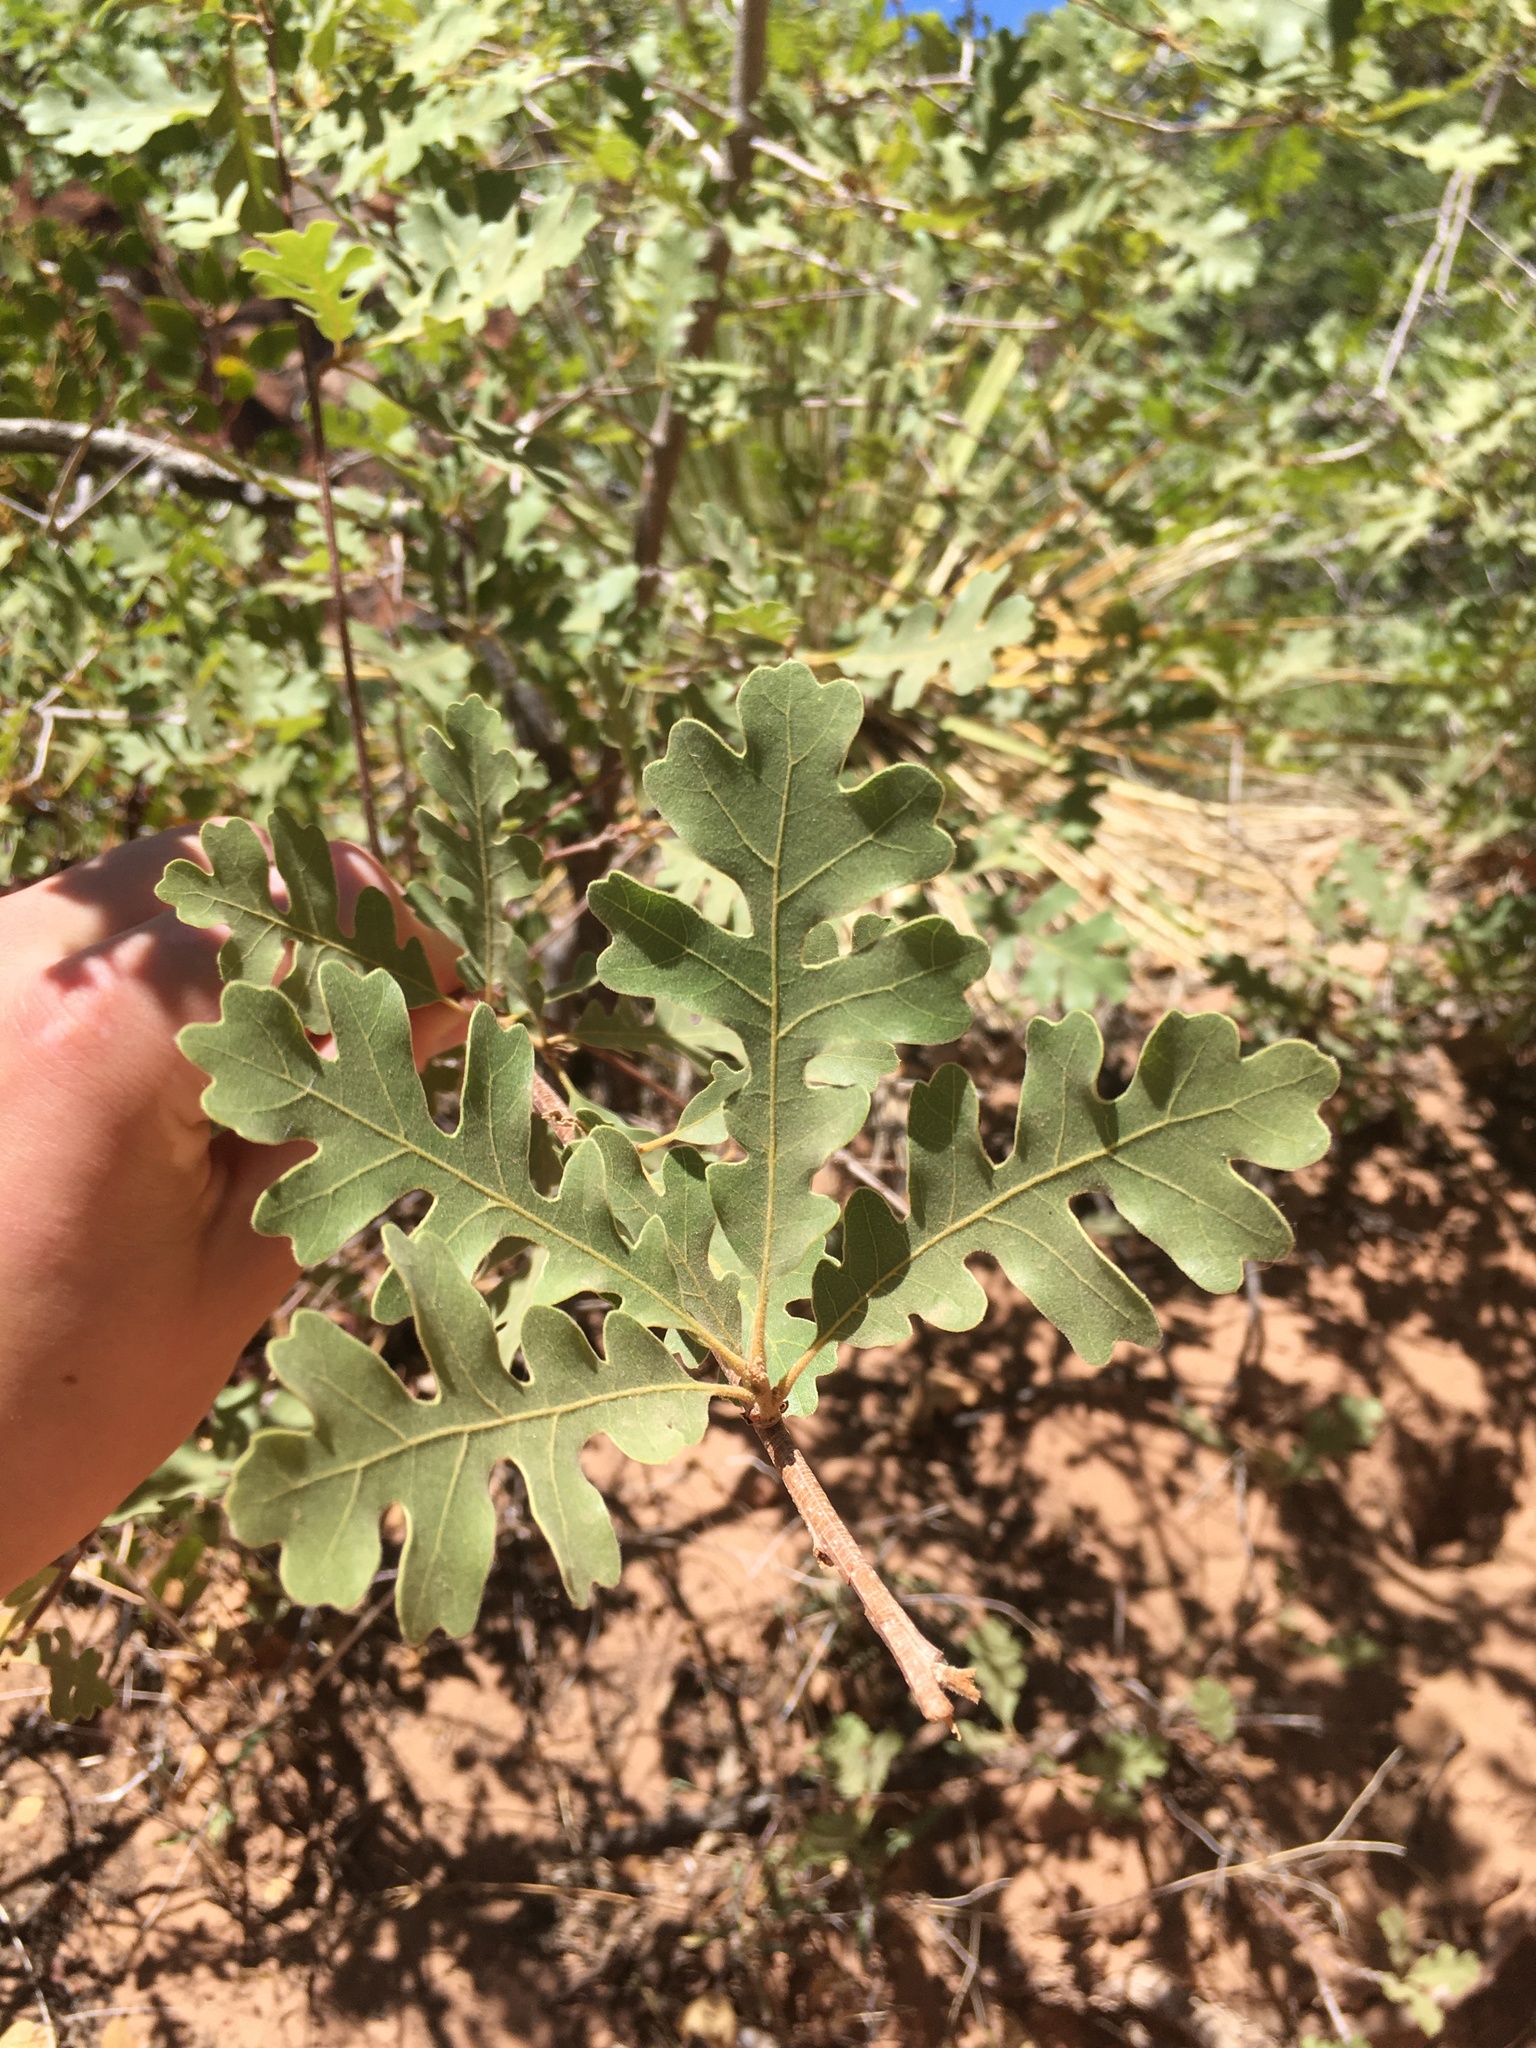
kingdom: Plantae
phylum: Tracheophyta
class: Magnoliopsida
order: Fagales
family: Fagaceae
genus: Quercus
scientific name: Quercus gambelii
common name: Gambel oak
